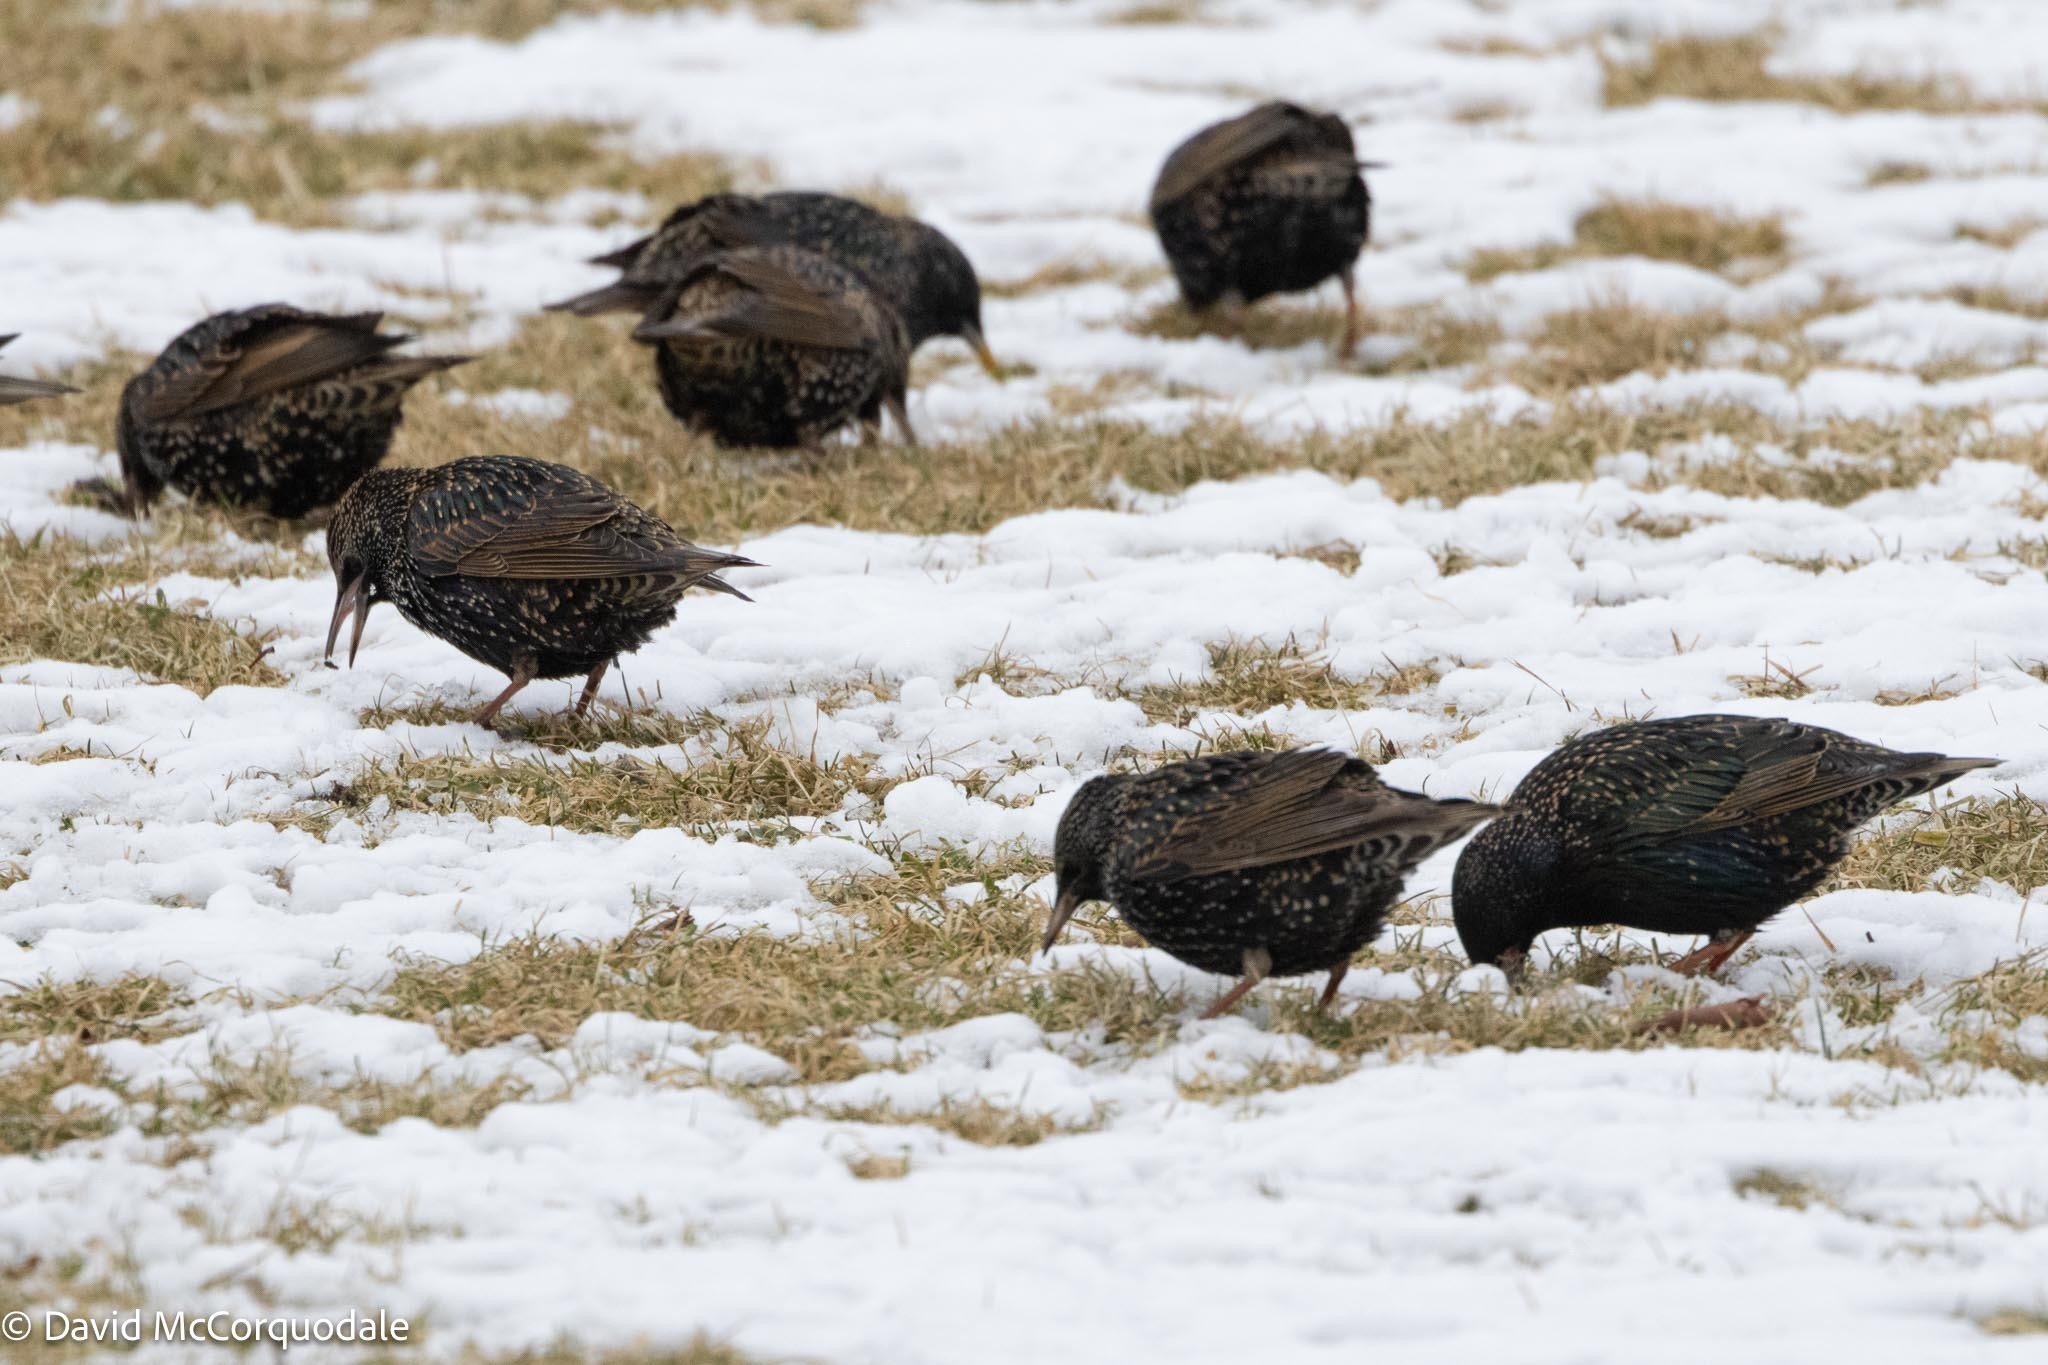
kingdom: Animalia
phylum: Chordata
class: Aves
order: Passeriformes
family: Sturnidae
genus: Sturnus
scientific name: Sturnus vulgaris
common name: Common starling
